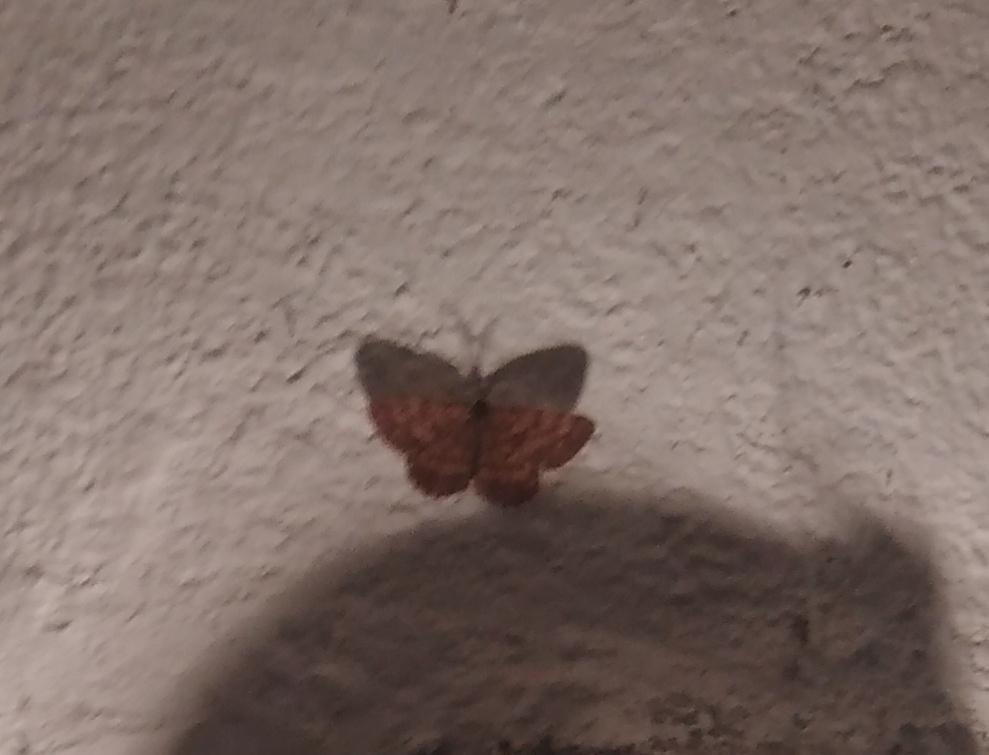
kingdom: Animalia
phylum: Arthropoda
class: Insecta
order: Lepidoptera
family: Geometridae
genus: Ematurga
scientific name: Ematurga atomaria
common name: Common heath
